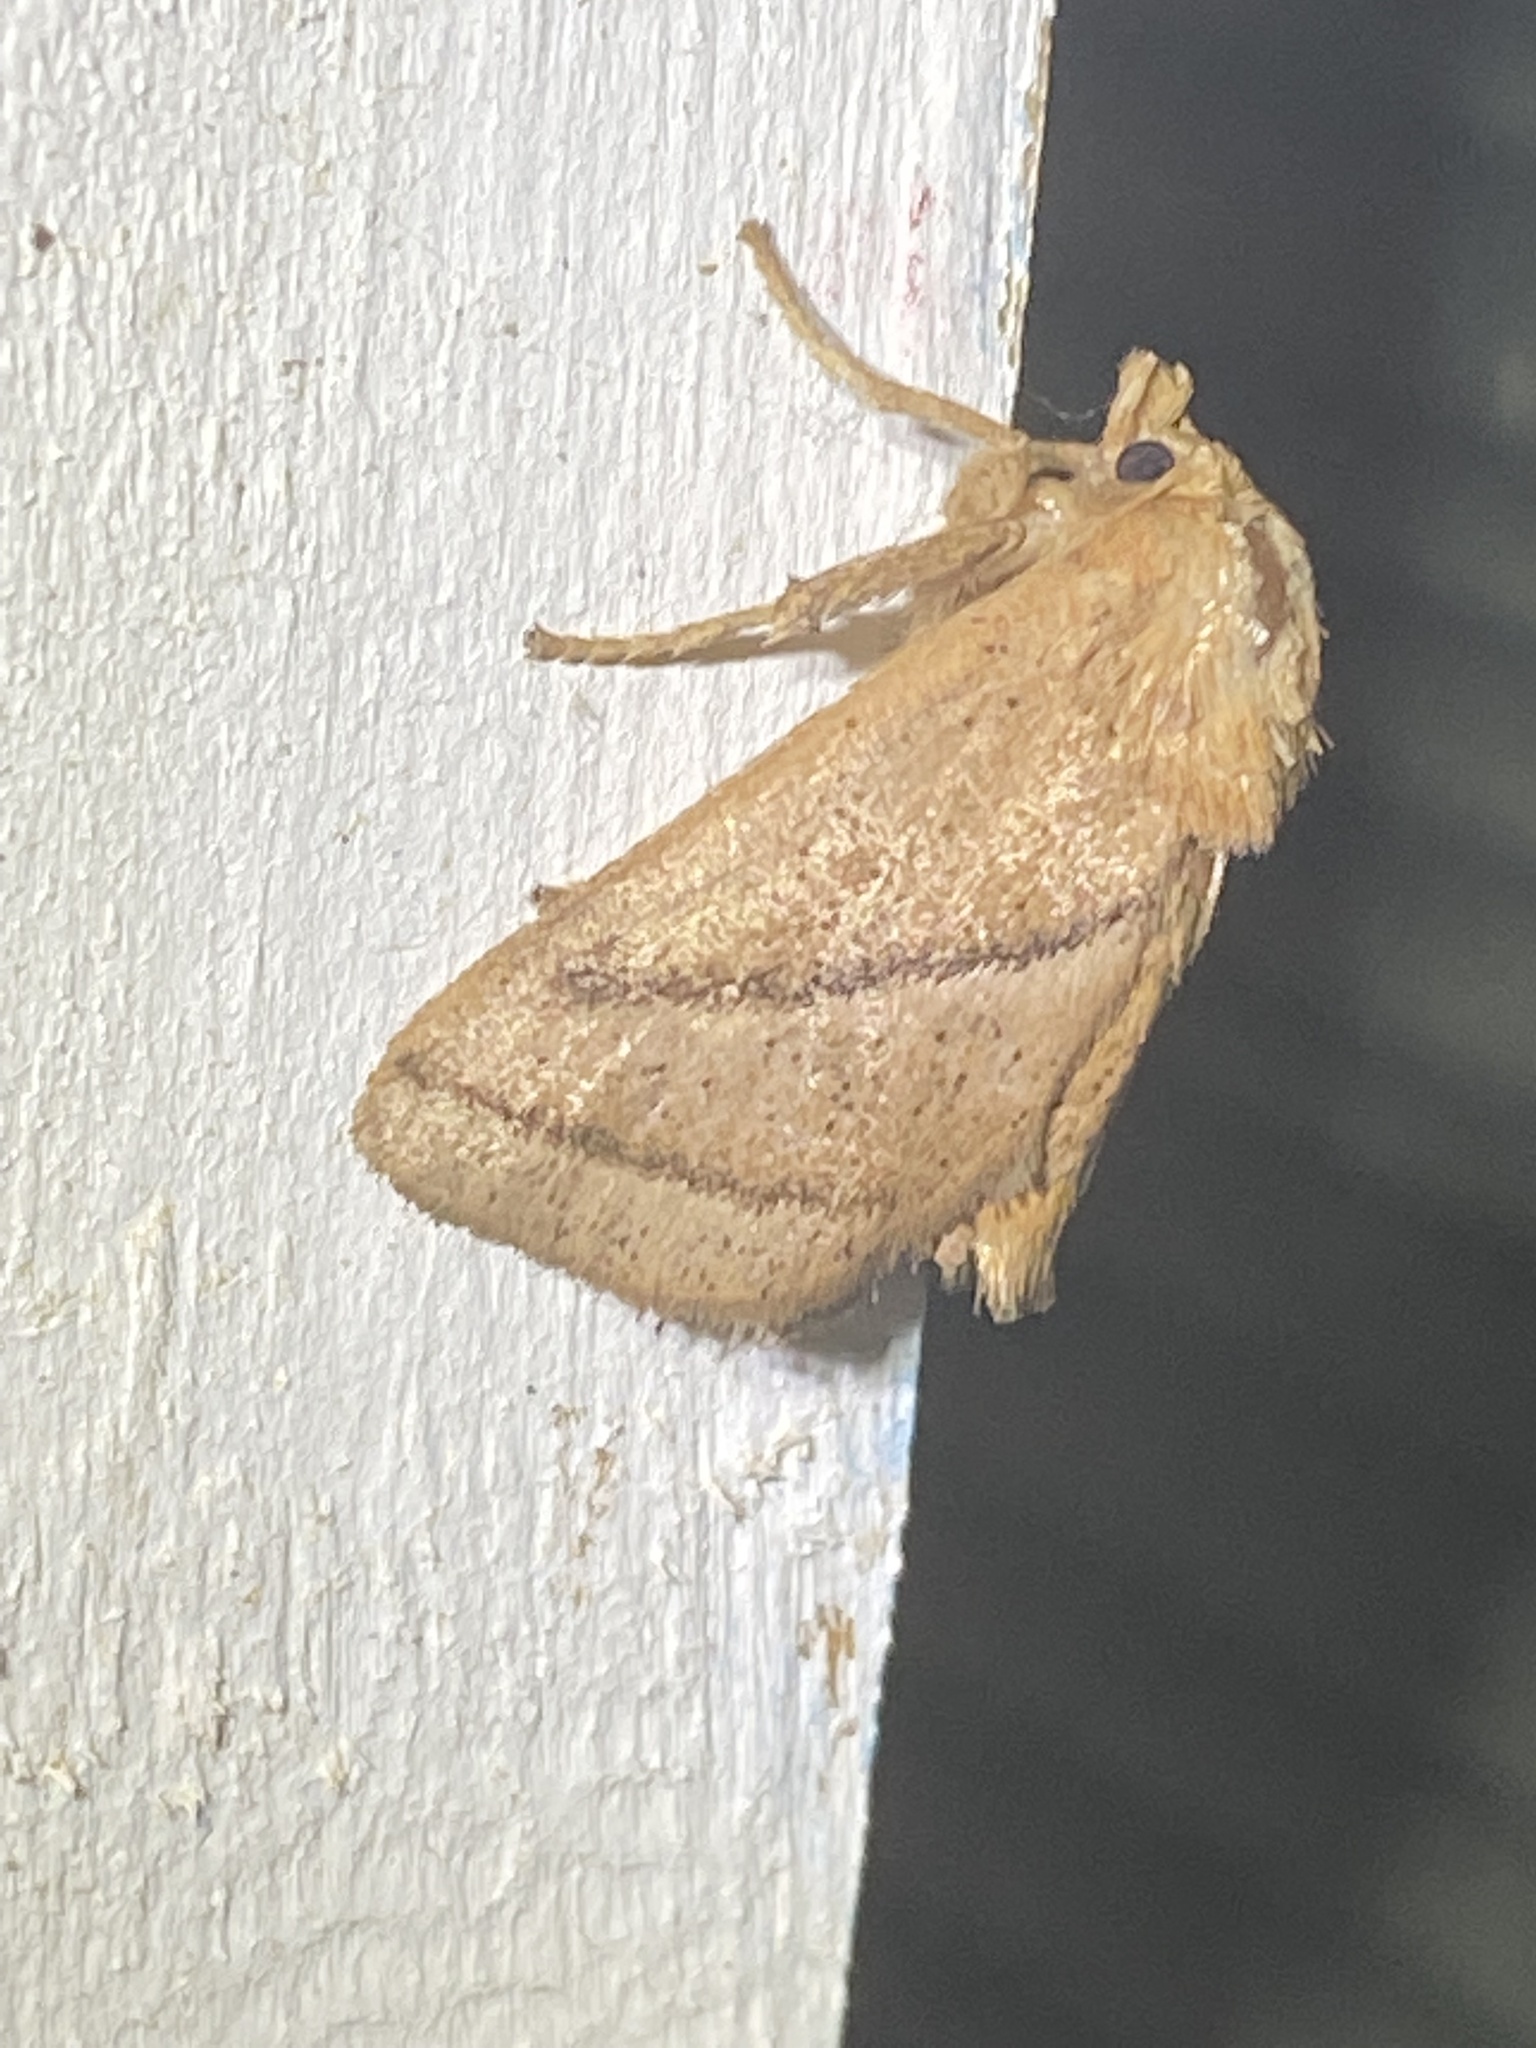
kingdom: Animalia
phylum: Arthropoda
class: Insecta
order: Lepidoptera
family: Limacodidae
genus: Natada
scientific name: Natada nasoni
